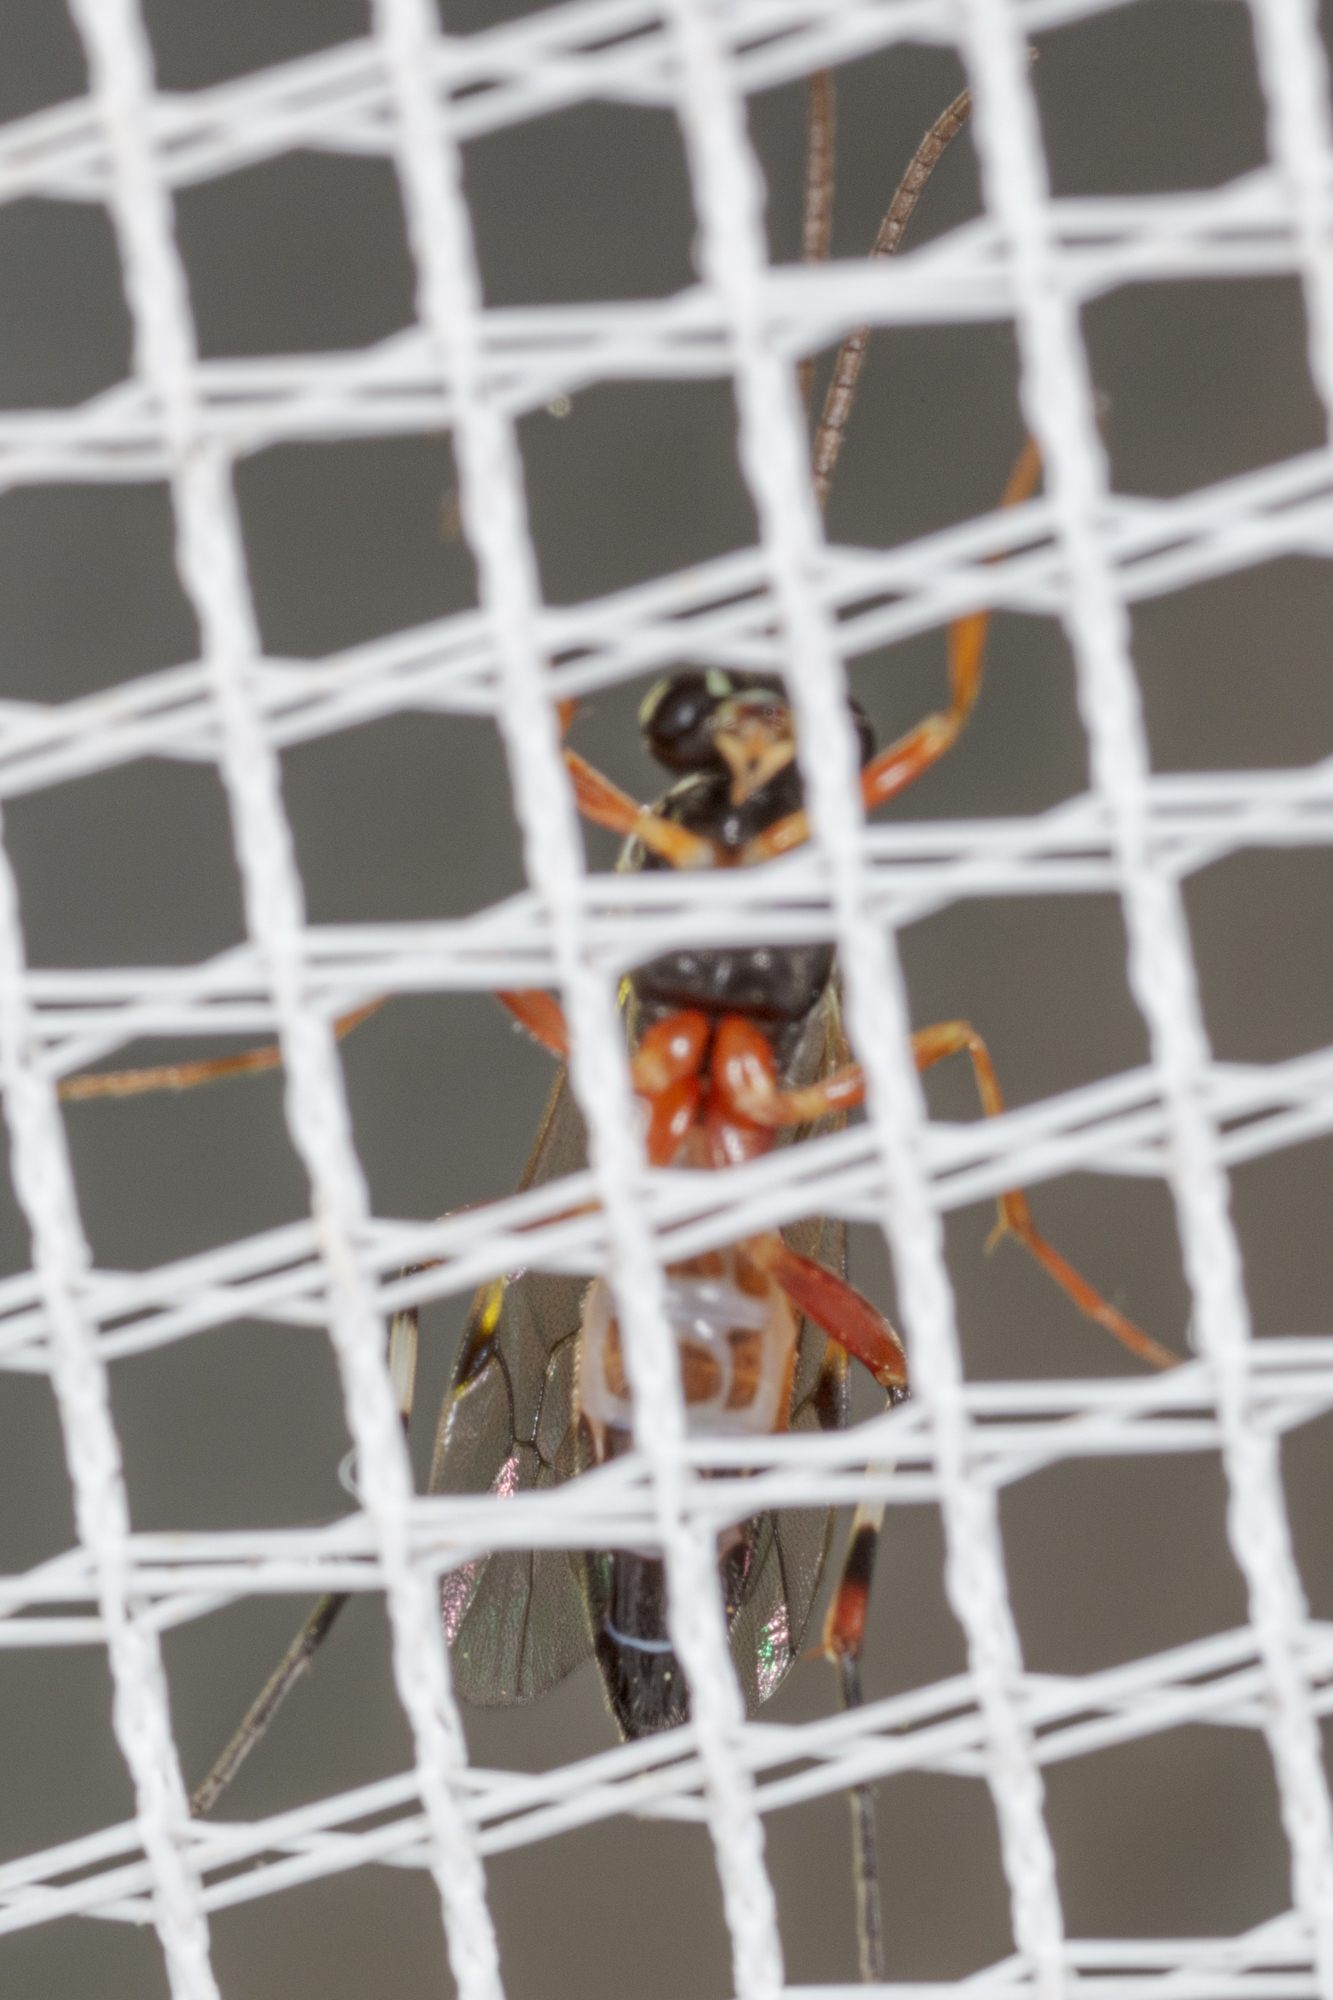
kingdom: Animalia
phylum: Arthropoda
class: Insecta
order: Hymenoptera
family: Ichneumonidae
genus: Diplazon
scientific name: Diplazon laetatorius
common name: Parasitoid wasp
